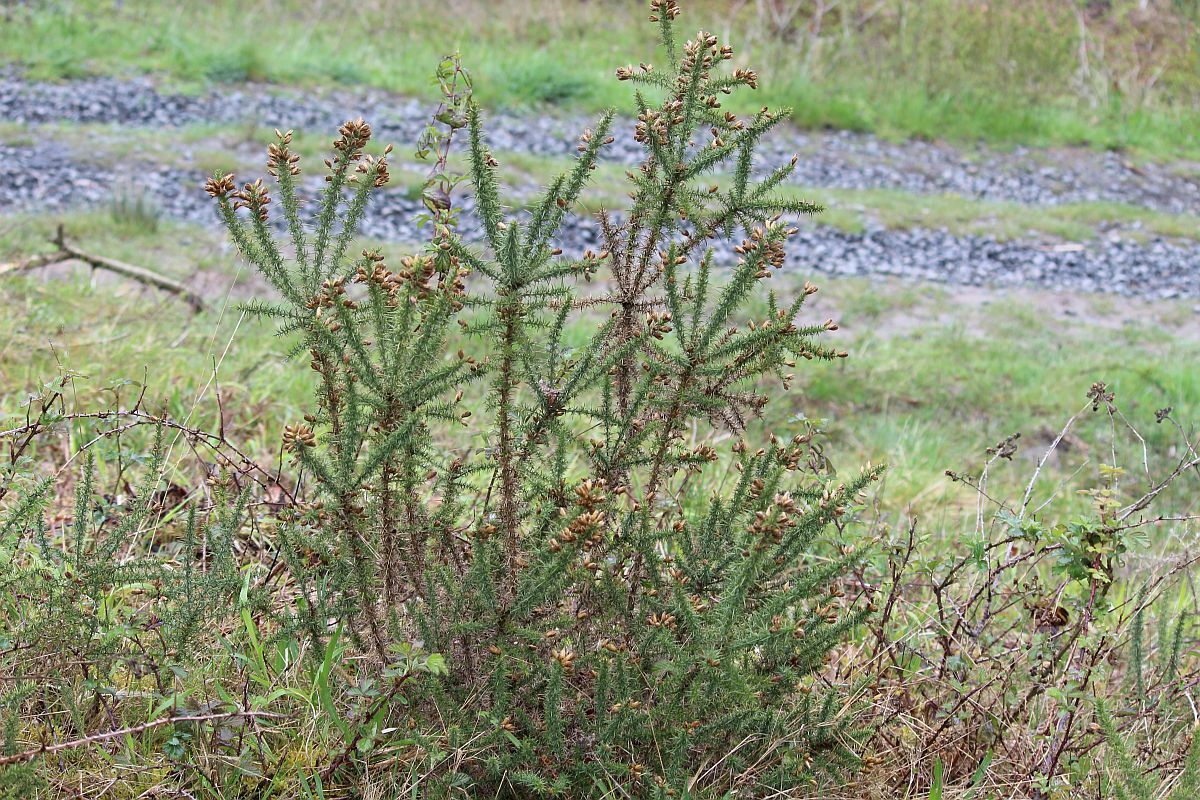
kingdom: Plantae
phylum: Tracheophyta
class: Magnoliopsida
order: Fabales
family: Fabaceae
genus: Ulex
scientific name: Ulex gallii
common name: Western gorse
